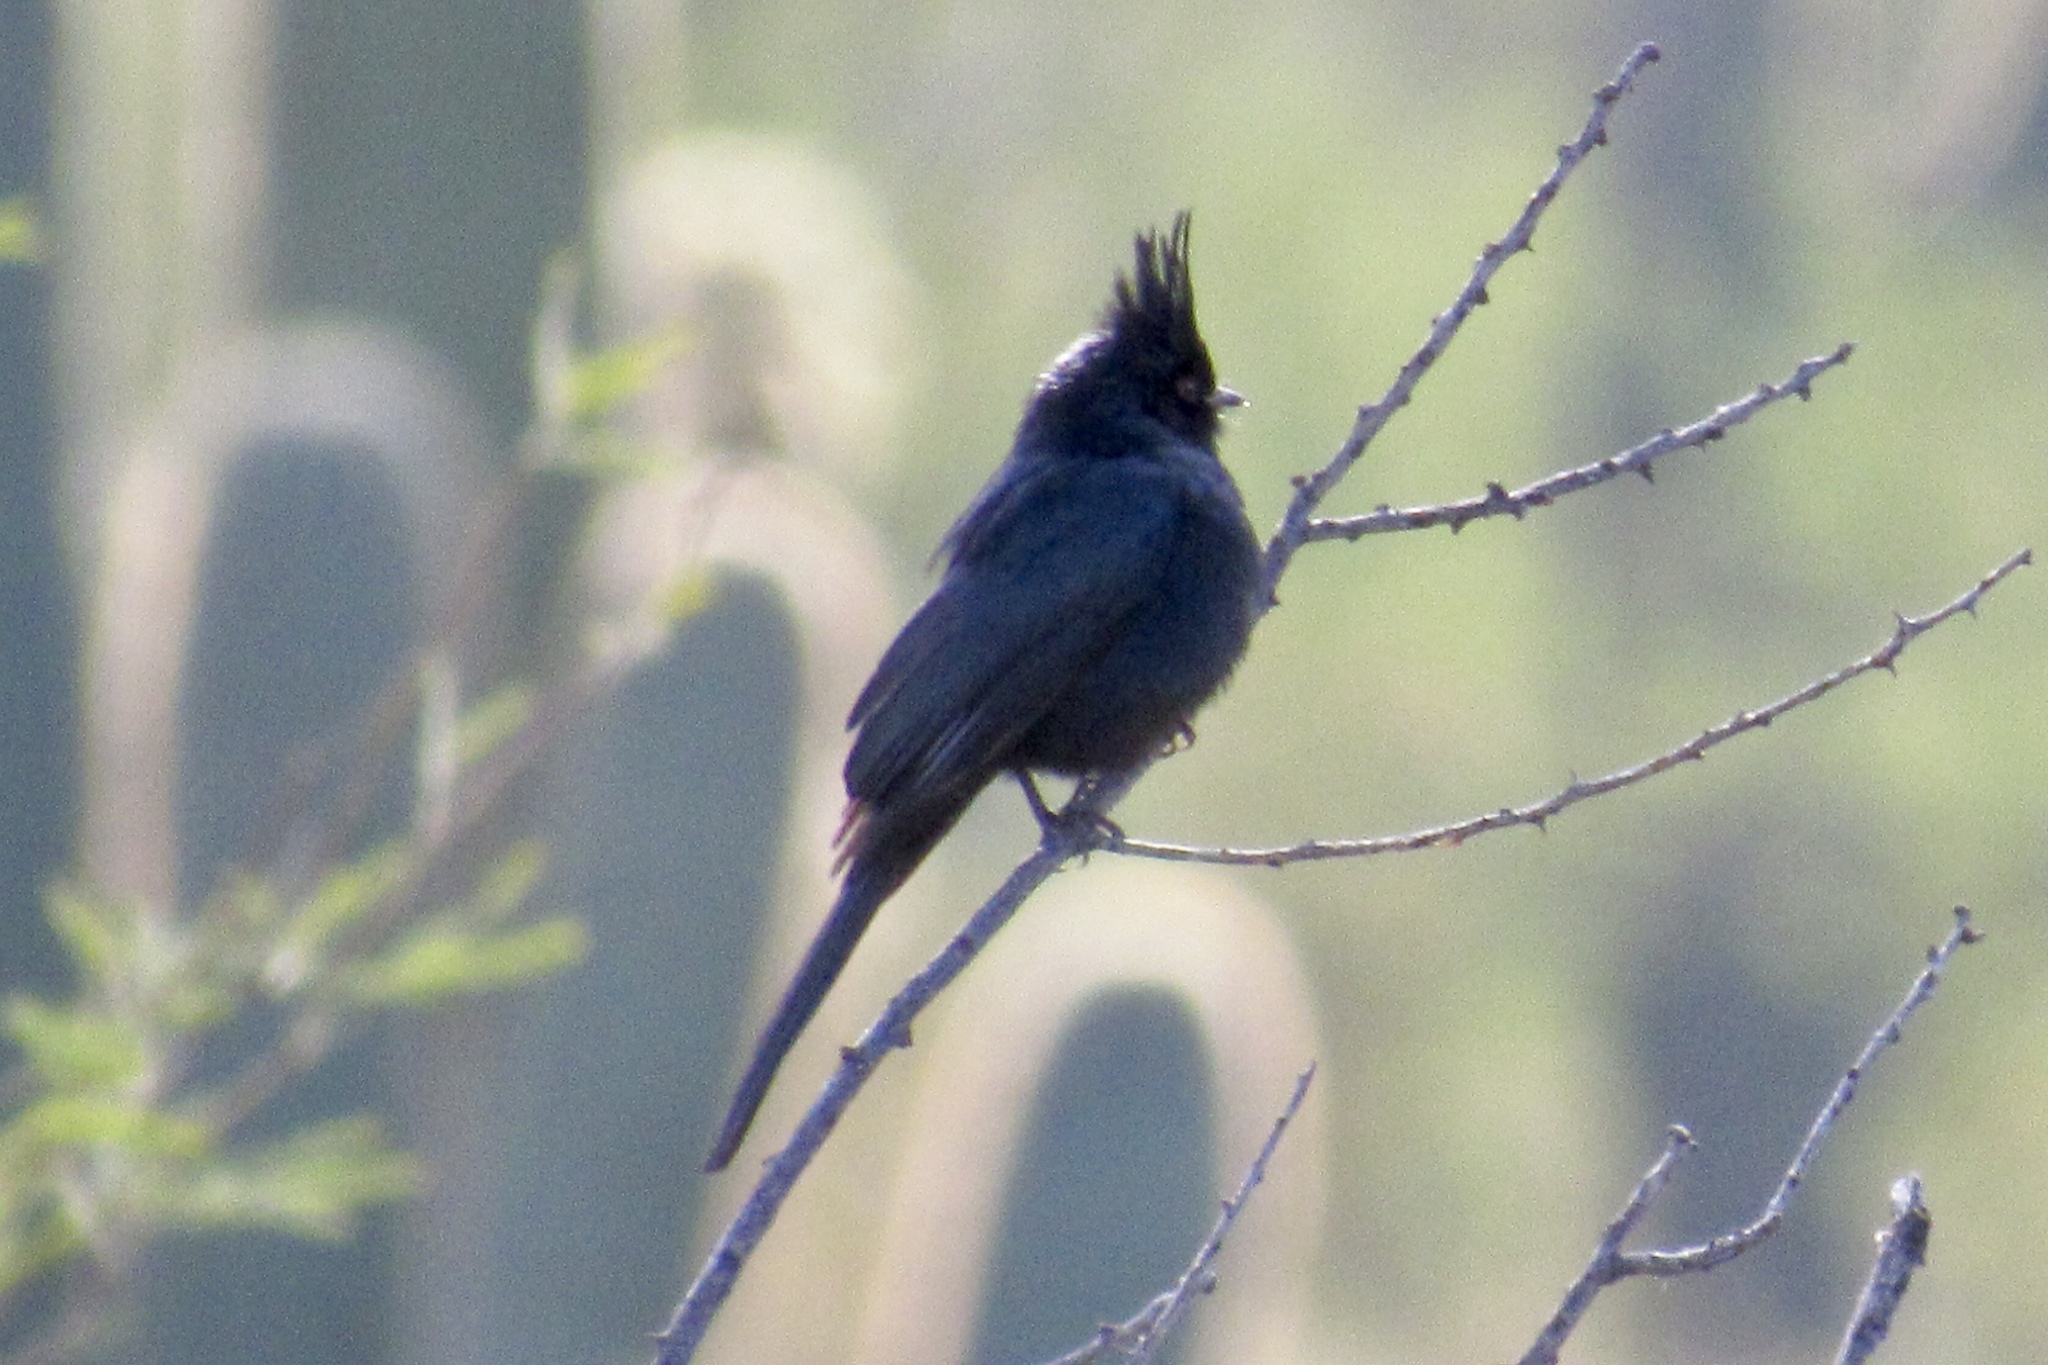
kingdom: Animalia
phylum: Chordata
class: Aves
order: Passeriformes
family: Ptilogonatidae
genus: Phainopepla
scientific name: Phainopepla nitens
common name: Phainopepla
